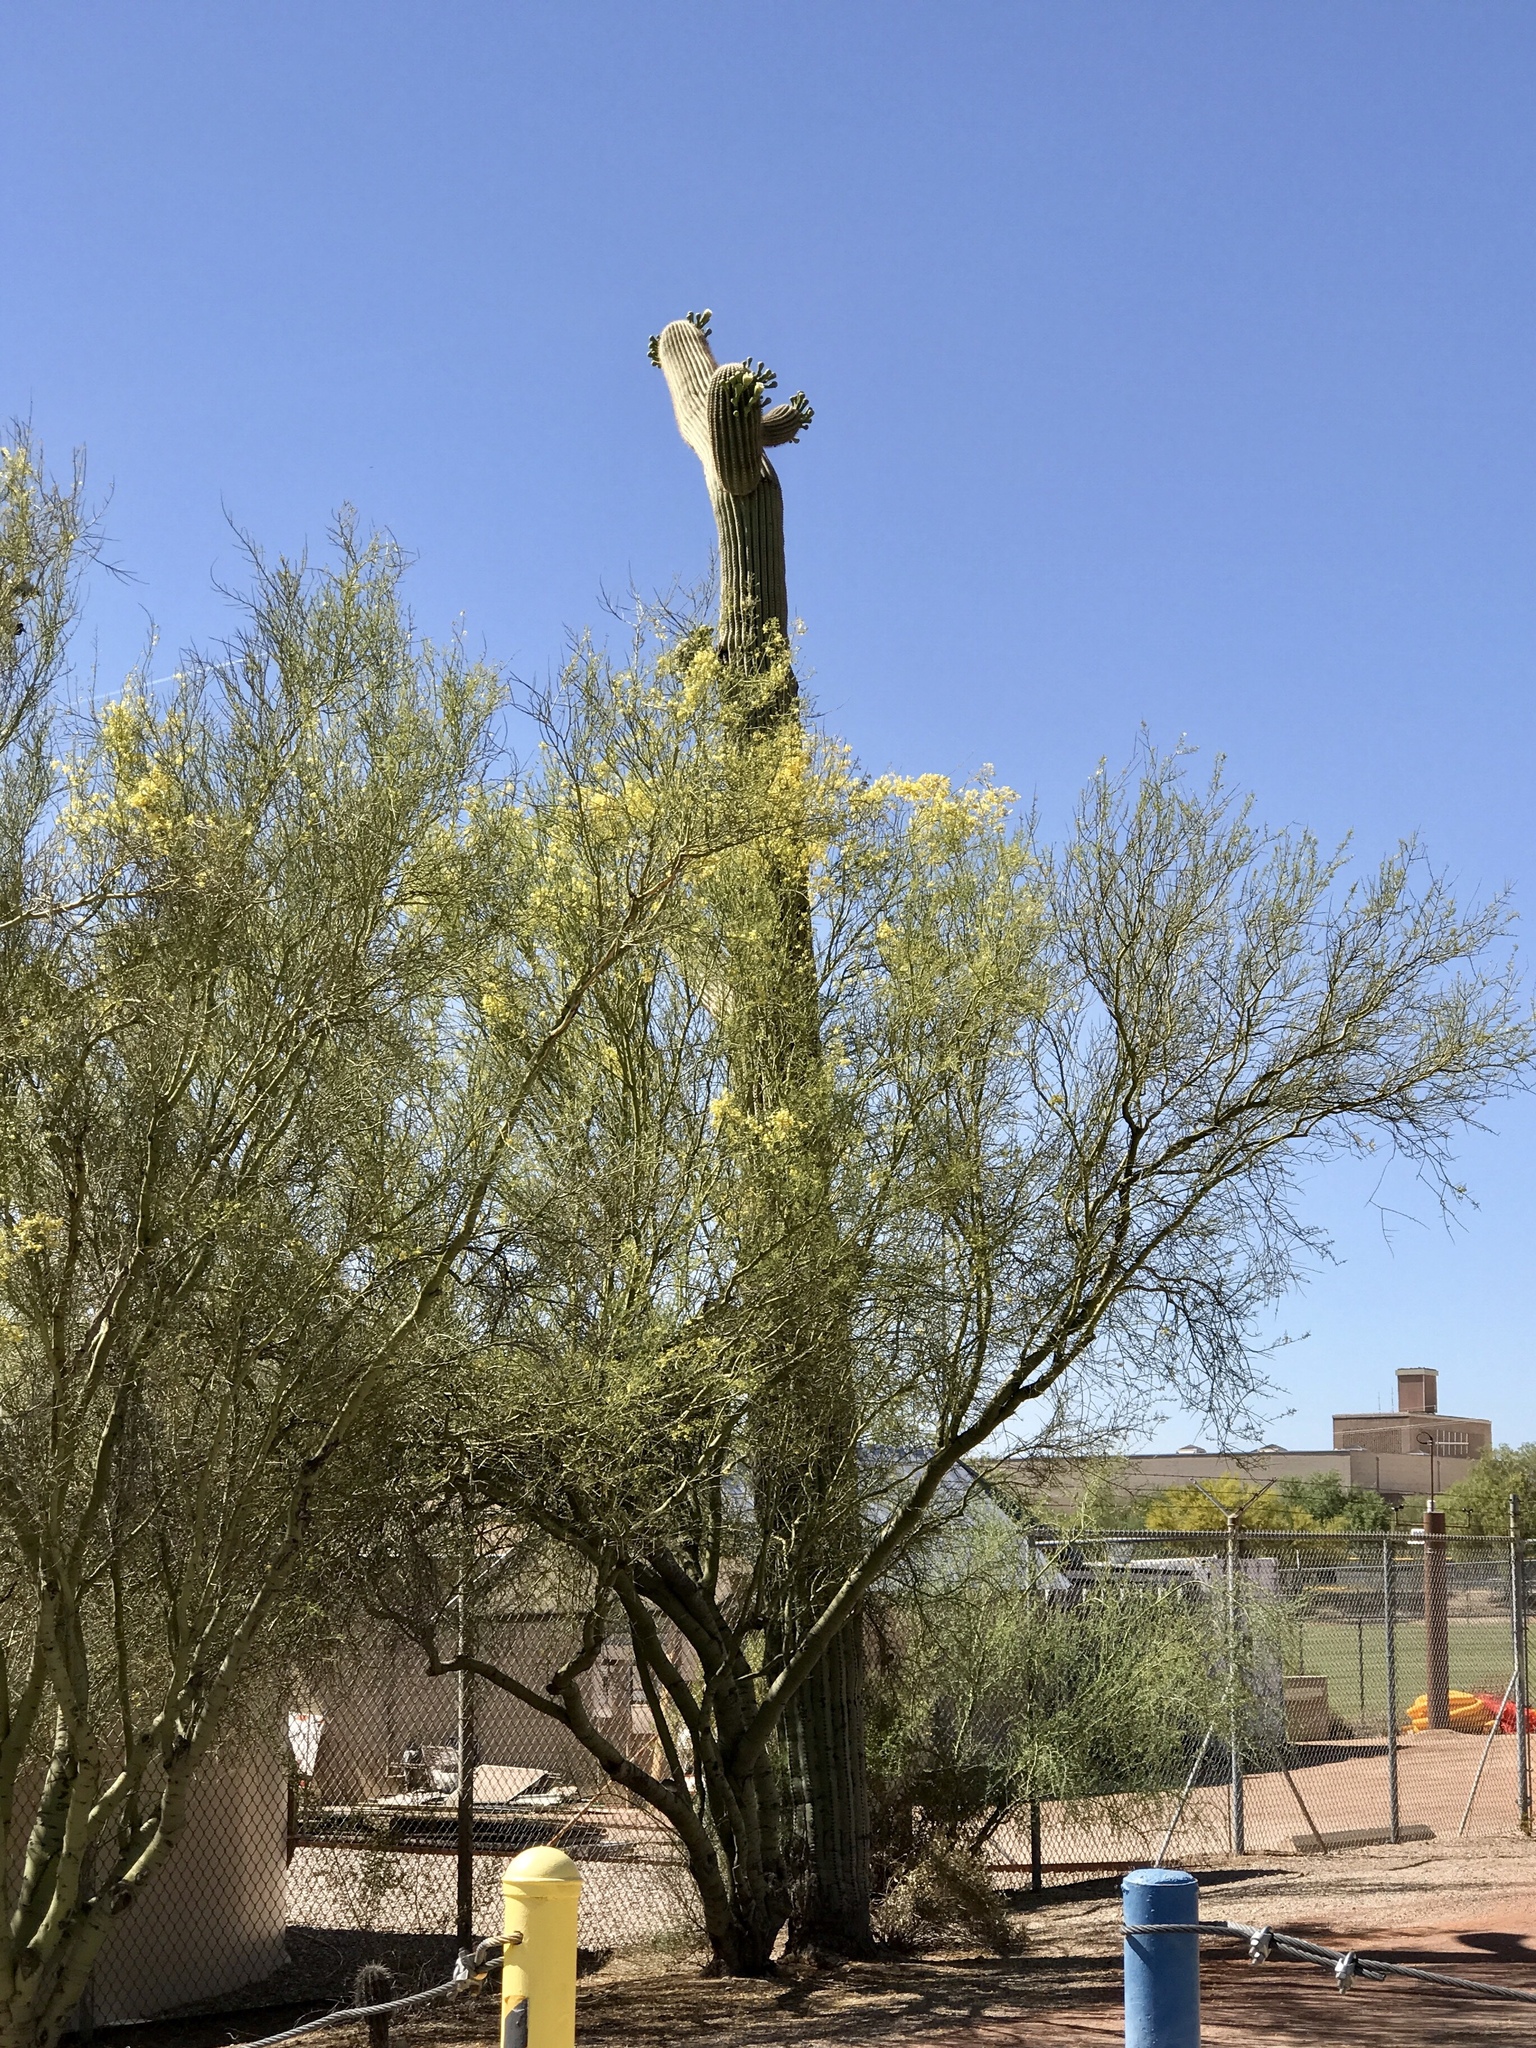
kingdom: Plantae
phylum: Tracheophyta
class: Magnoliopsida
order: Caryophyllales
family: Cactaceae
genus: Carnegiea
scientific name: Carnegiea gigantea
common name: Saguaro
